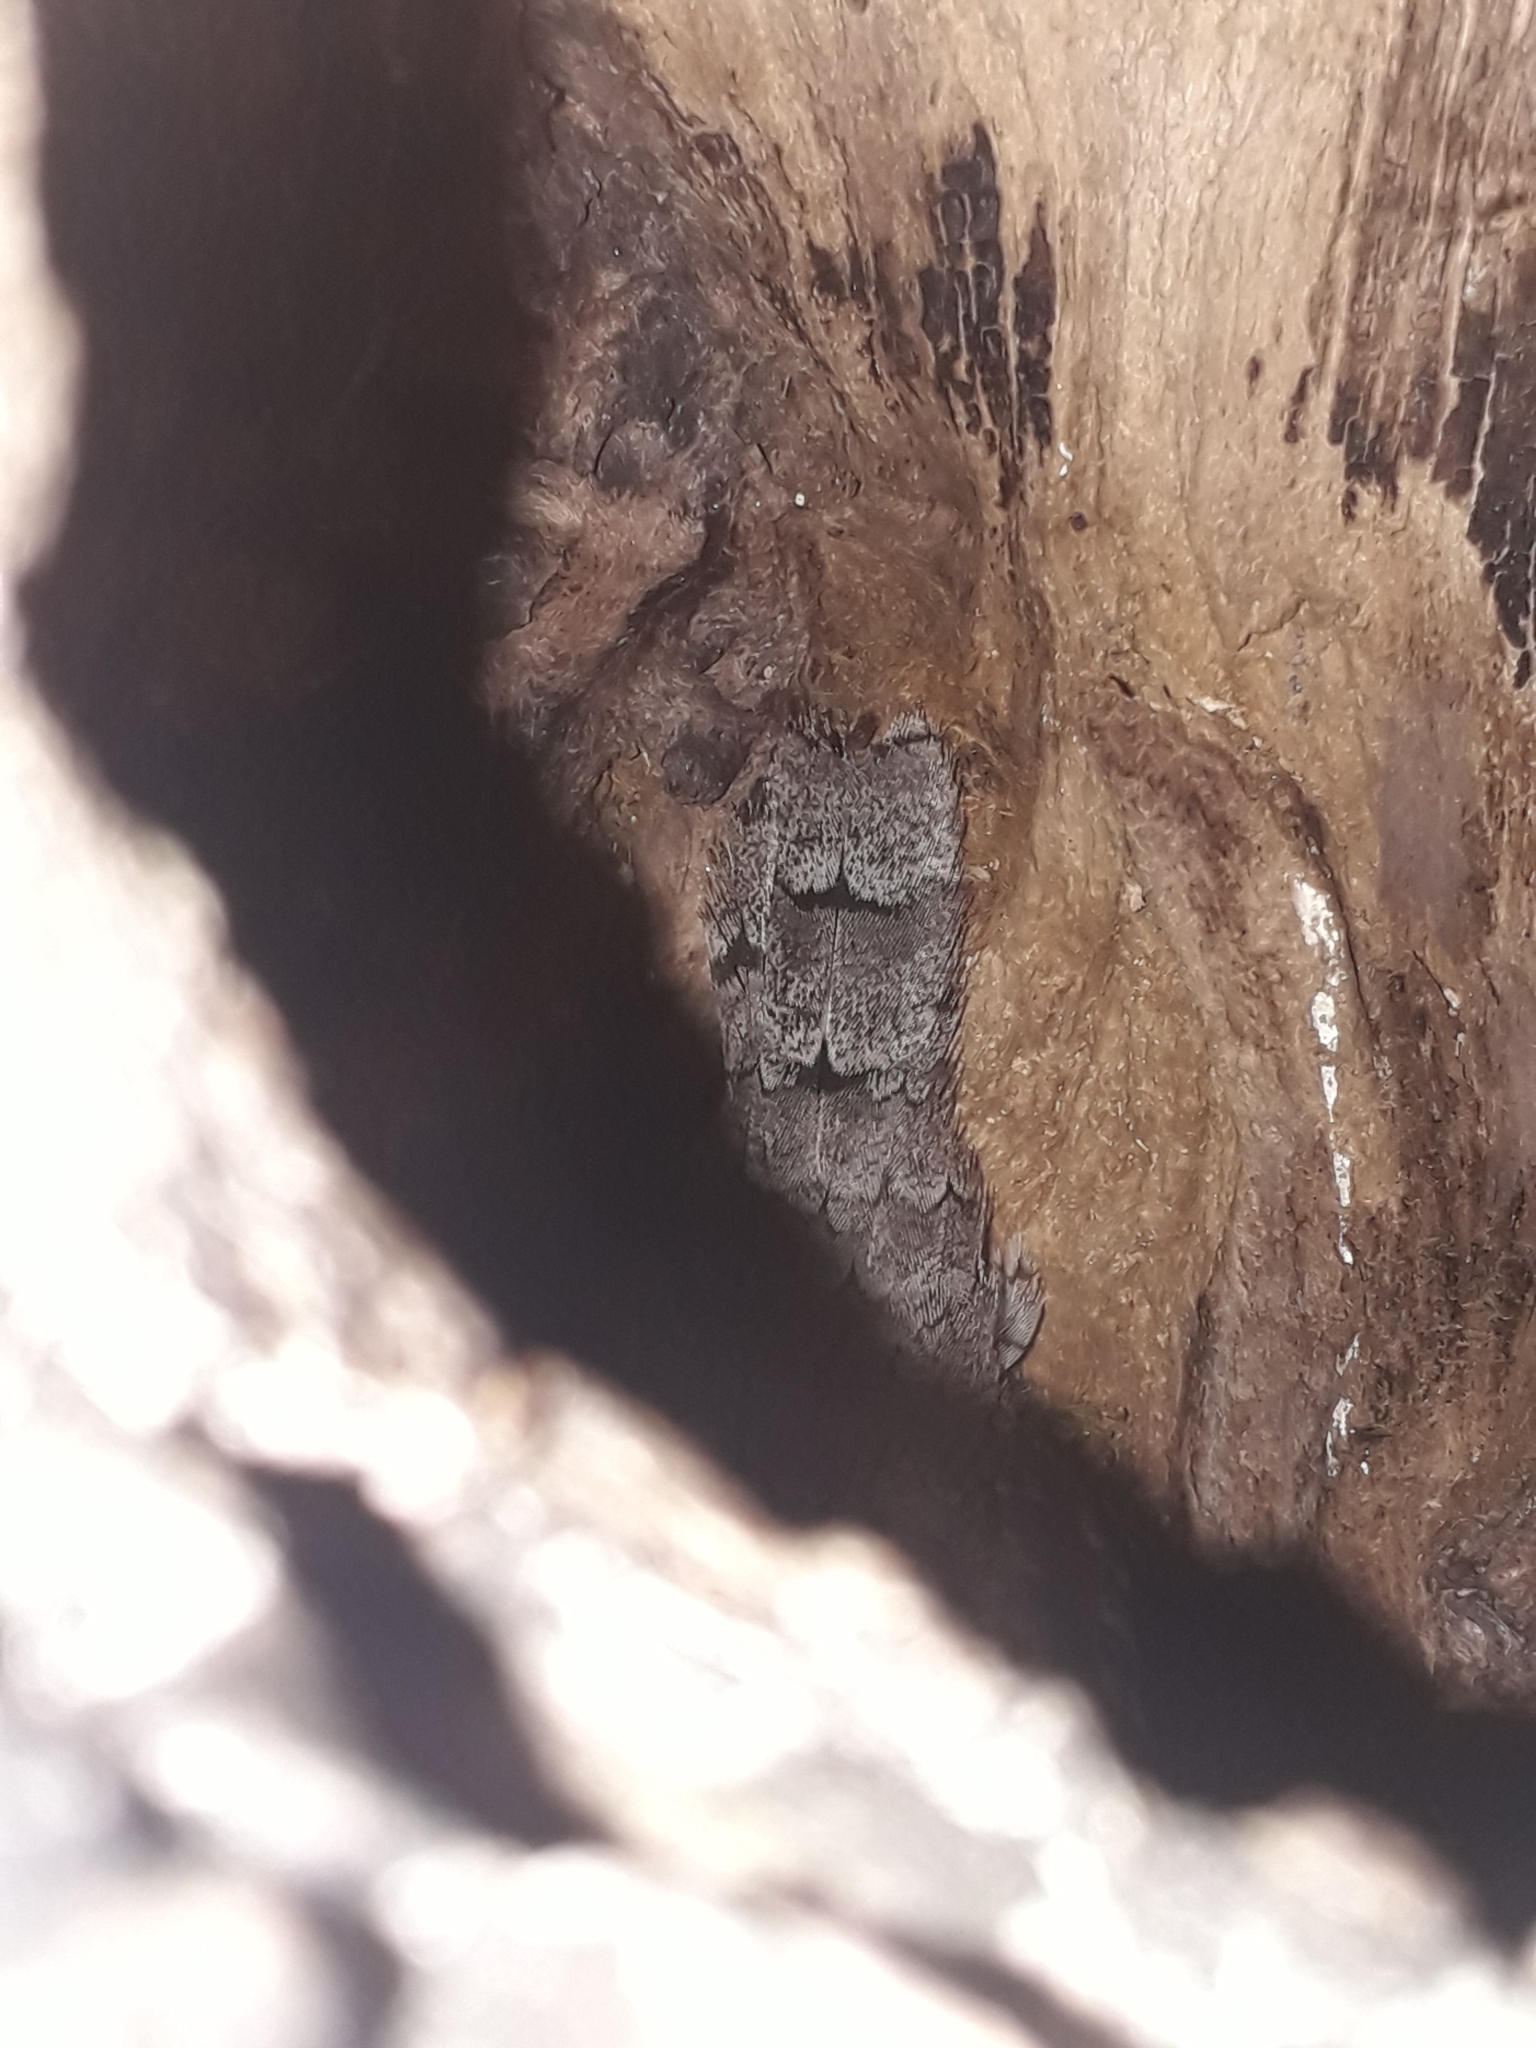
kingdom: Animalia
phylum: Chordata
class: Aves
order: Piciformes
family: Picidae
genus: Jynx
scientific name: Jynx torquilla
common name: Eurasian wryneck
